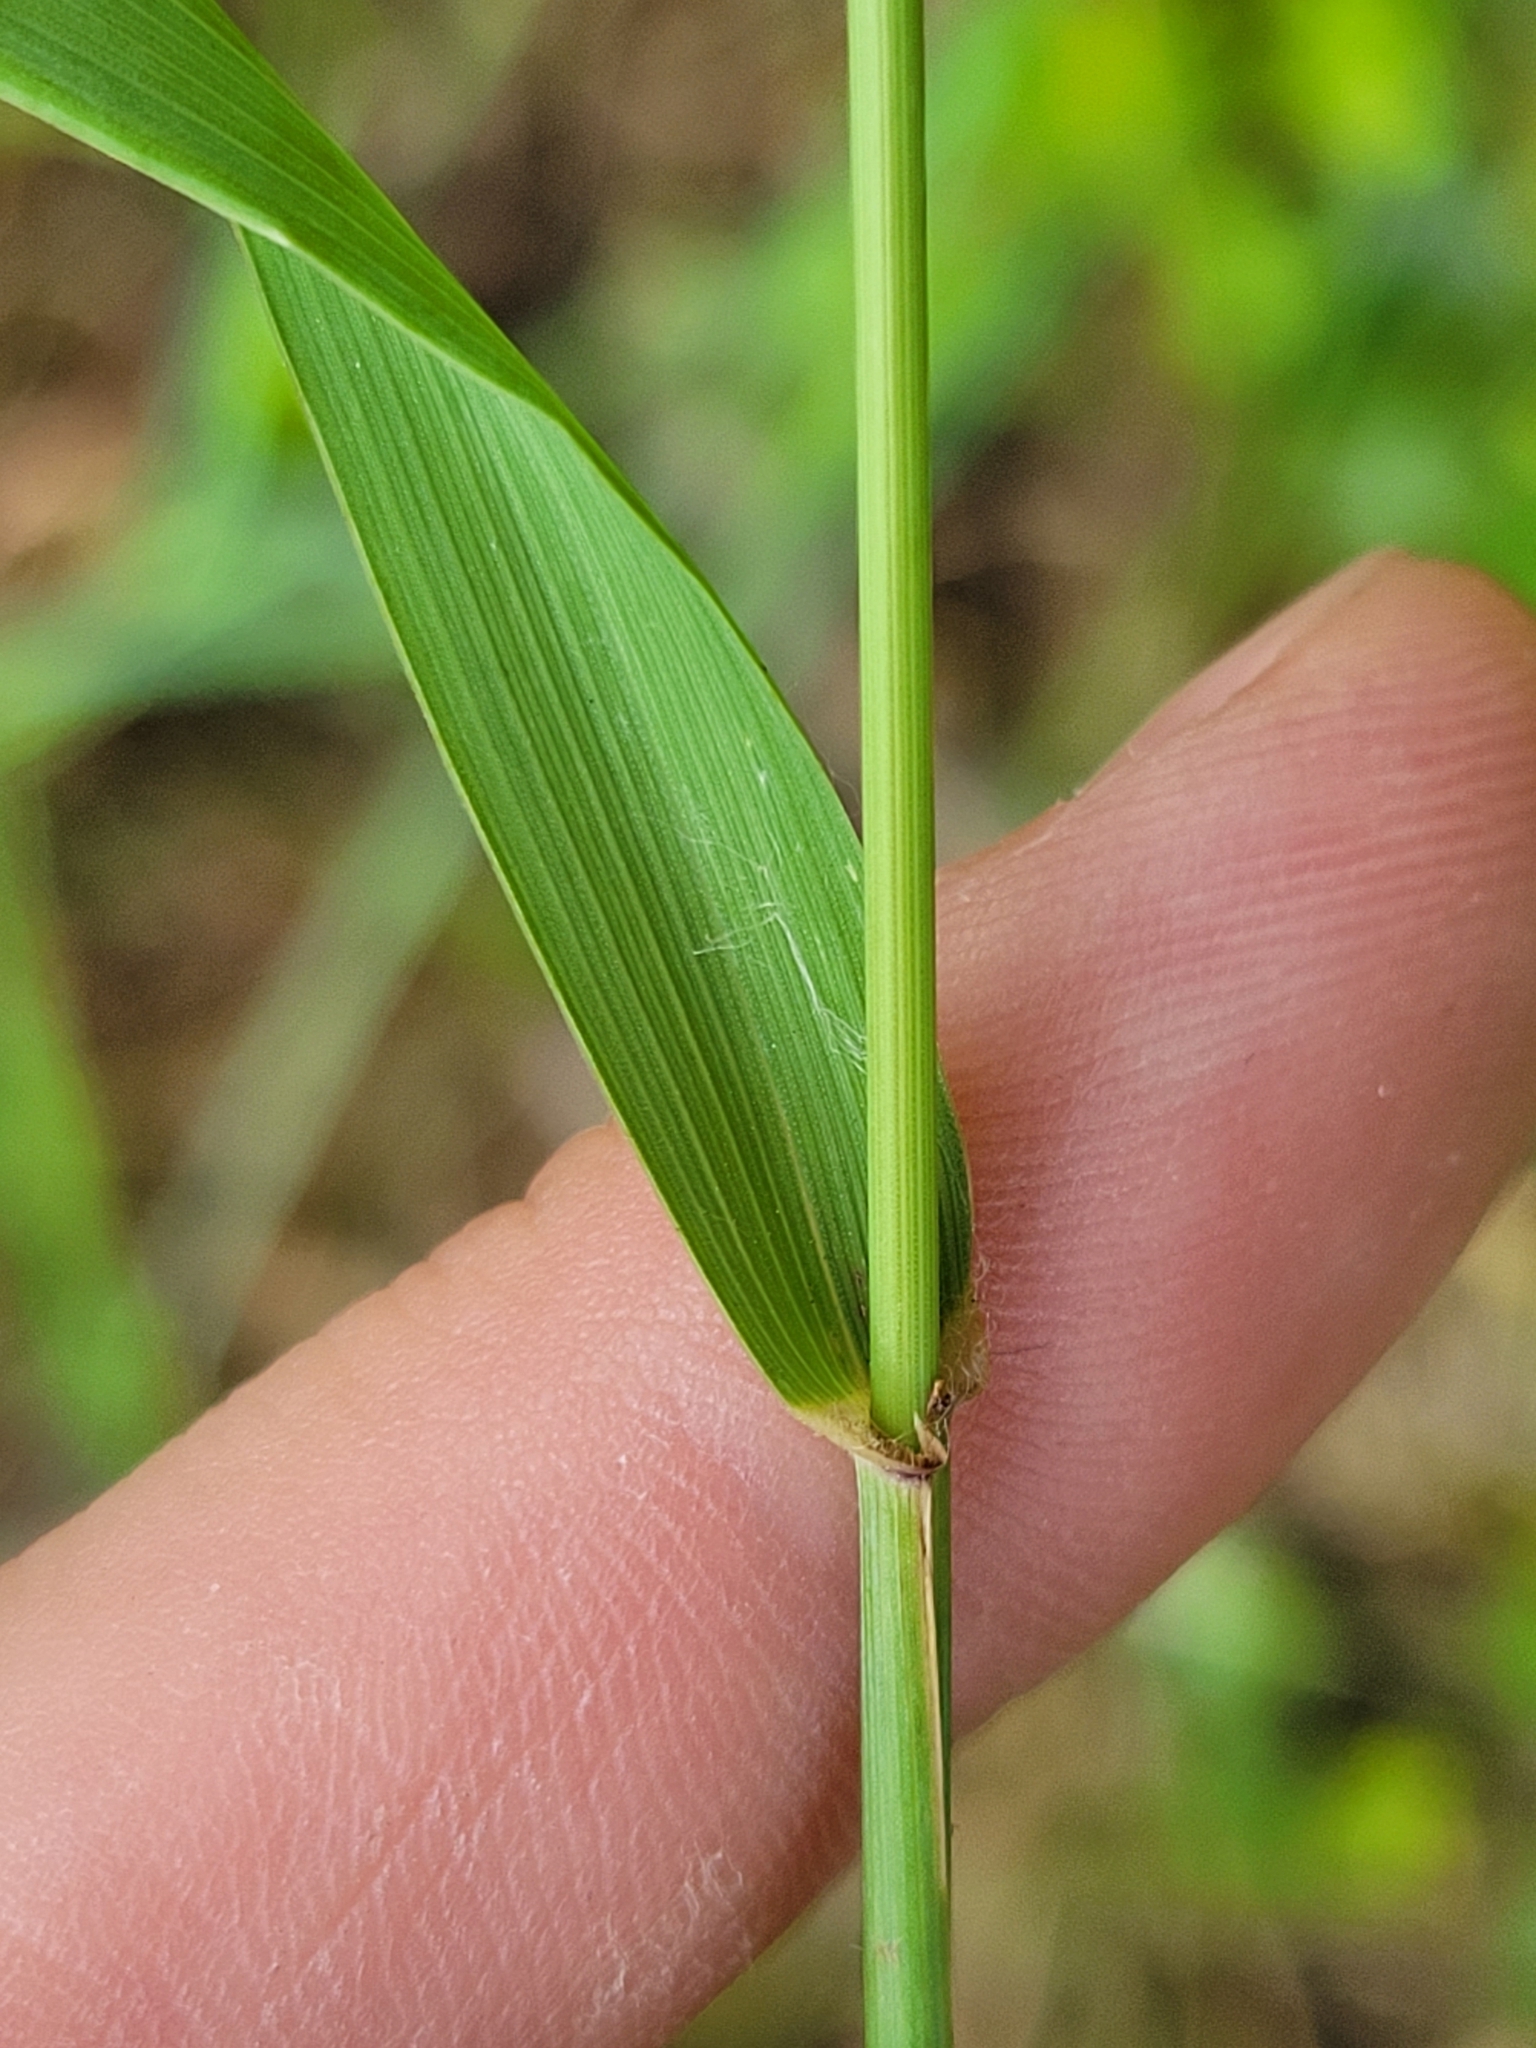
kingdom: Plantae
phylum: Tracheophyta
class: Liliopsida
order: Poales
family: Poaceae
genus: Elymus
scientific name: Elymus repens
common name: Quackgrass
